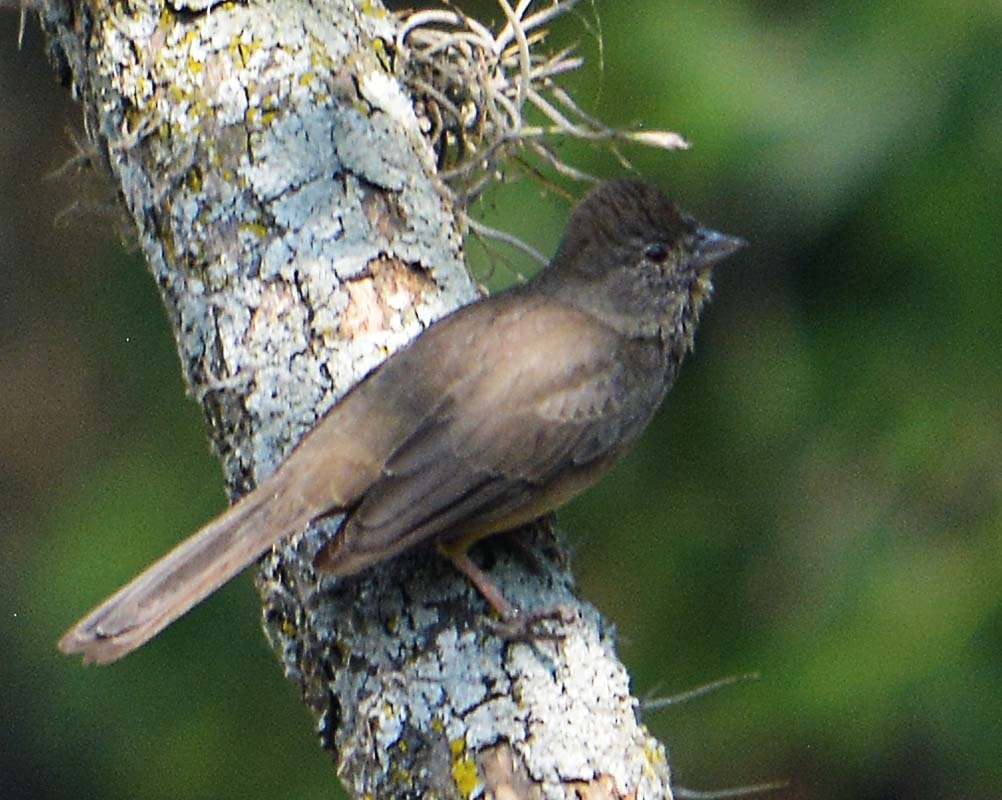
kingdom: Animalia
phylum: Chordata
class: Aves
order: Passeriformes
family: Passerellidae
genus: Melozone
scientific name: Melozone fusca
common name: Canyon towhee
